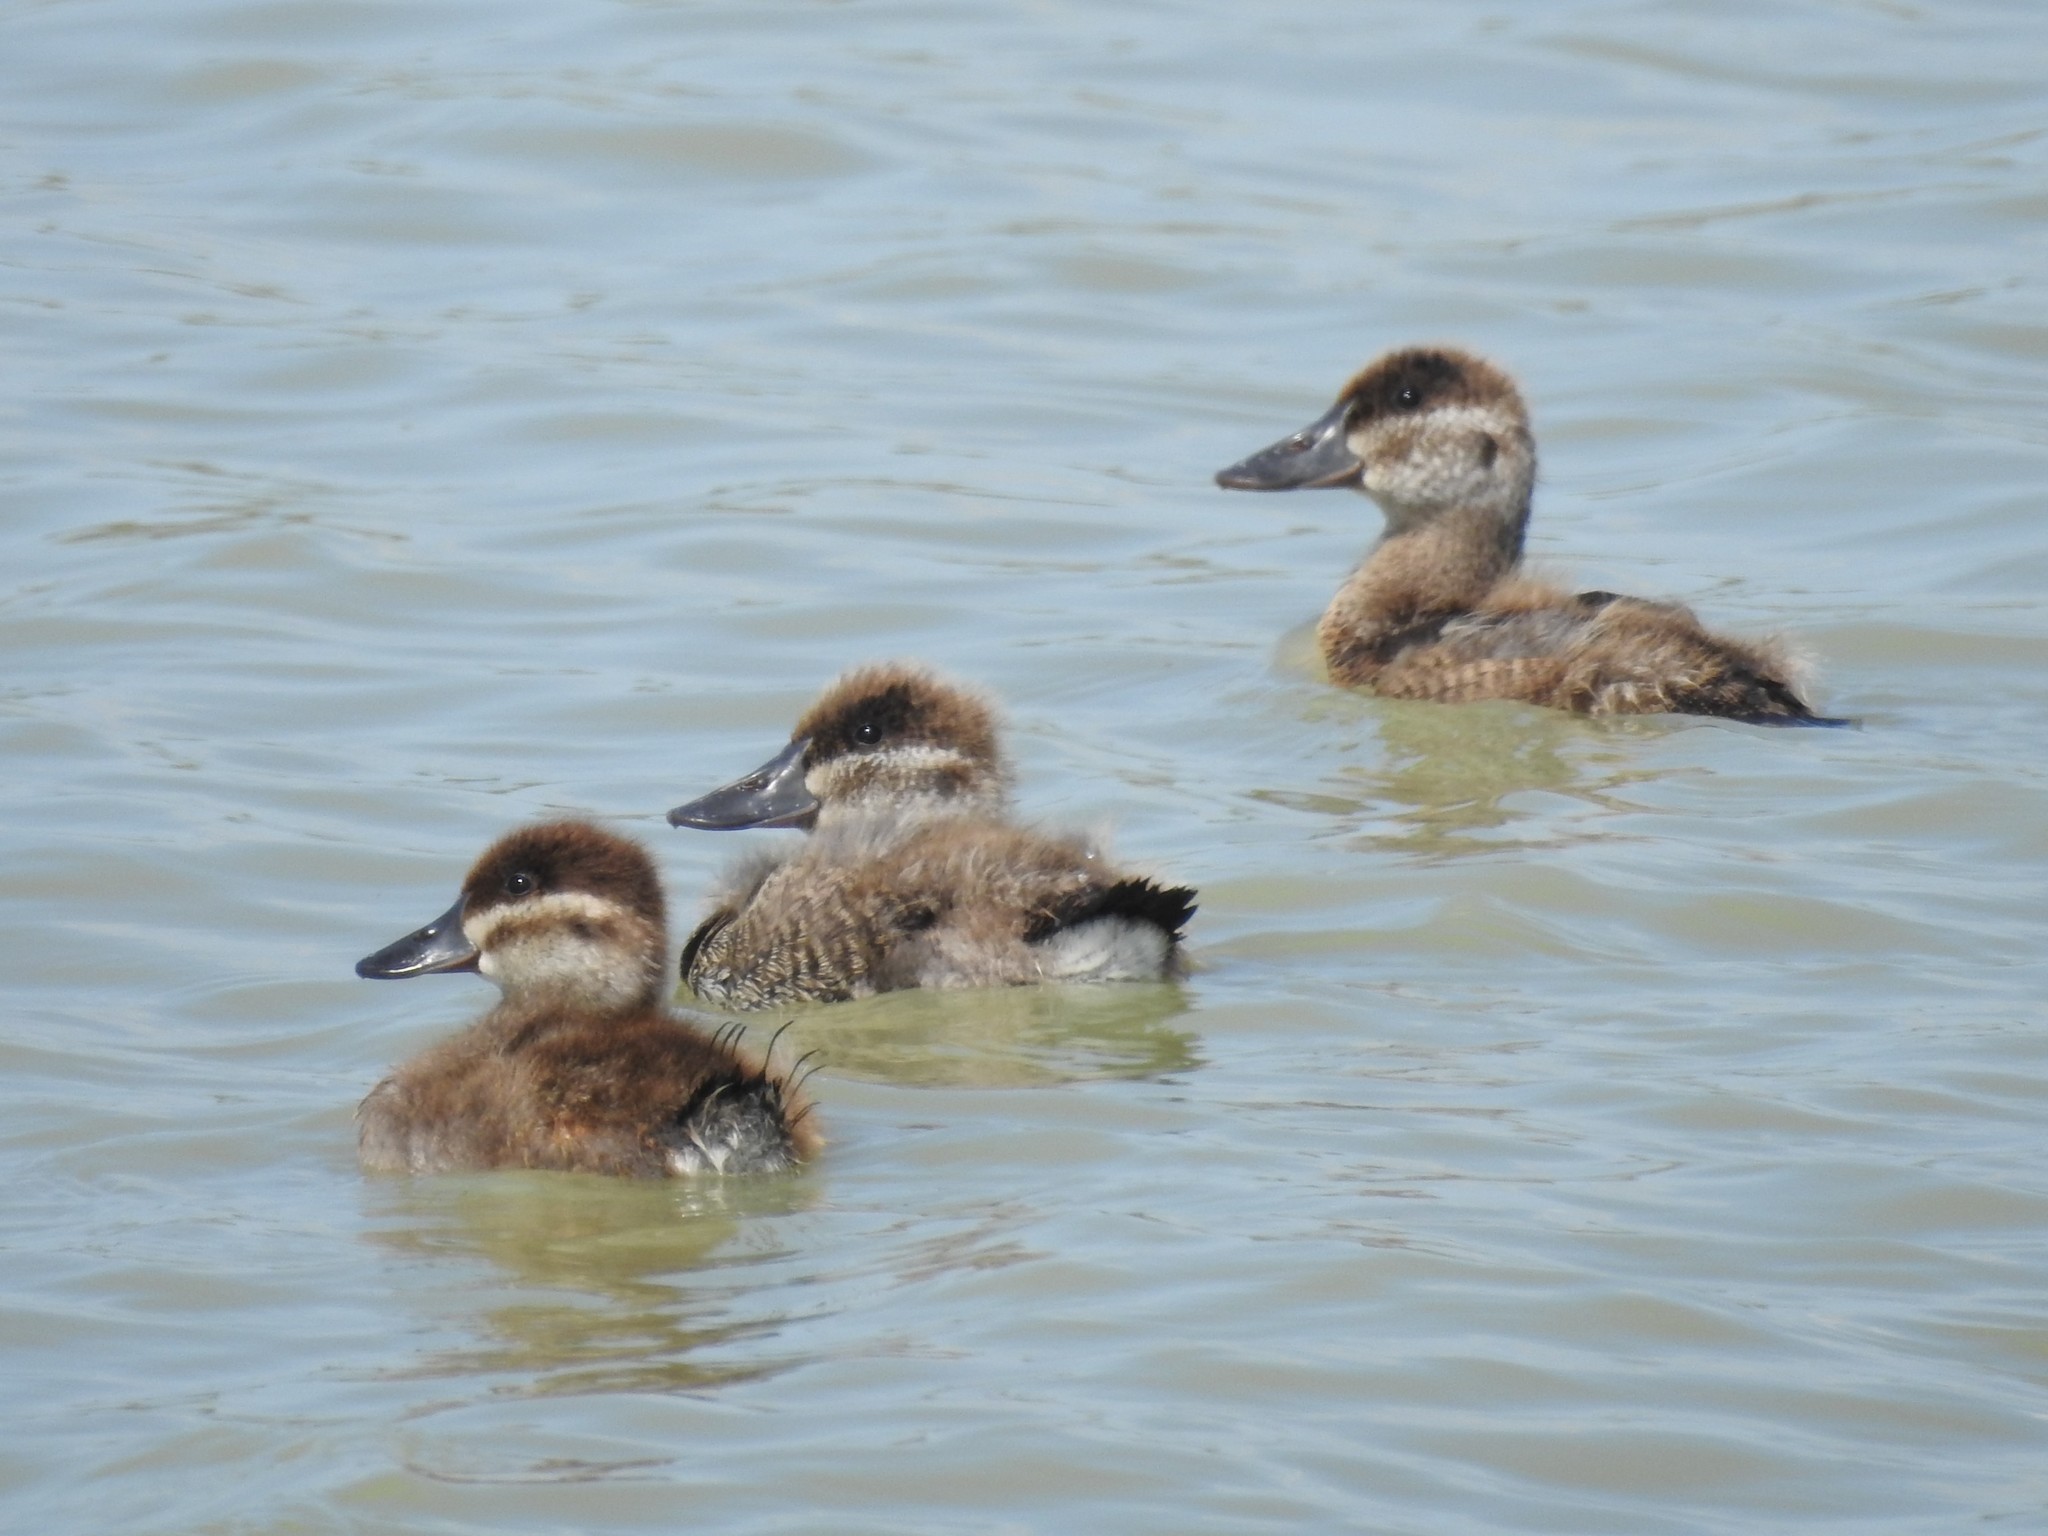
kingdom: Animalia
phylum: Chordata
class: Aves
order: Anseriformes
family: Anatidae
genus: Oxyura
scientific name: Oxyura jamaicensis
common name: Ruddy duck
